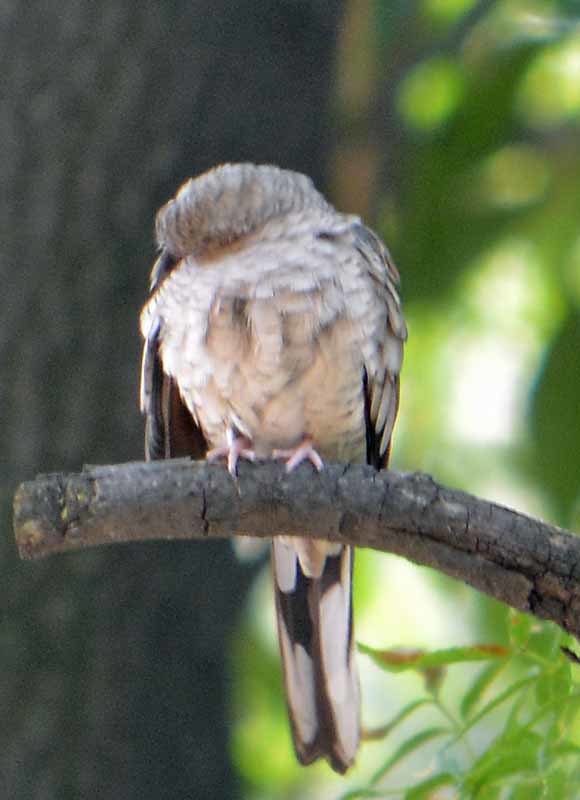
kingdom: Animalia
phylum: Chordata
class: Aves
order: Columbiformes
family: Columbidae
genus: Columbina
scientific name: Columbina inca
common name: Inca dove
